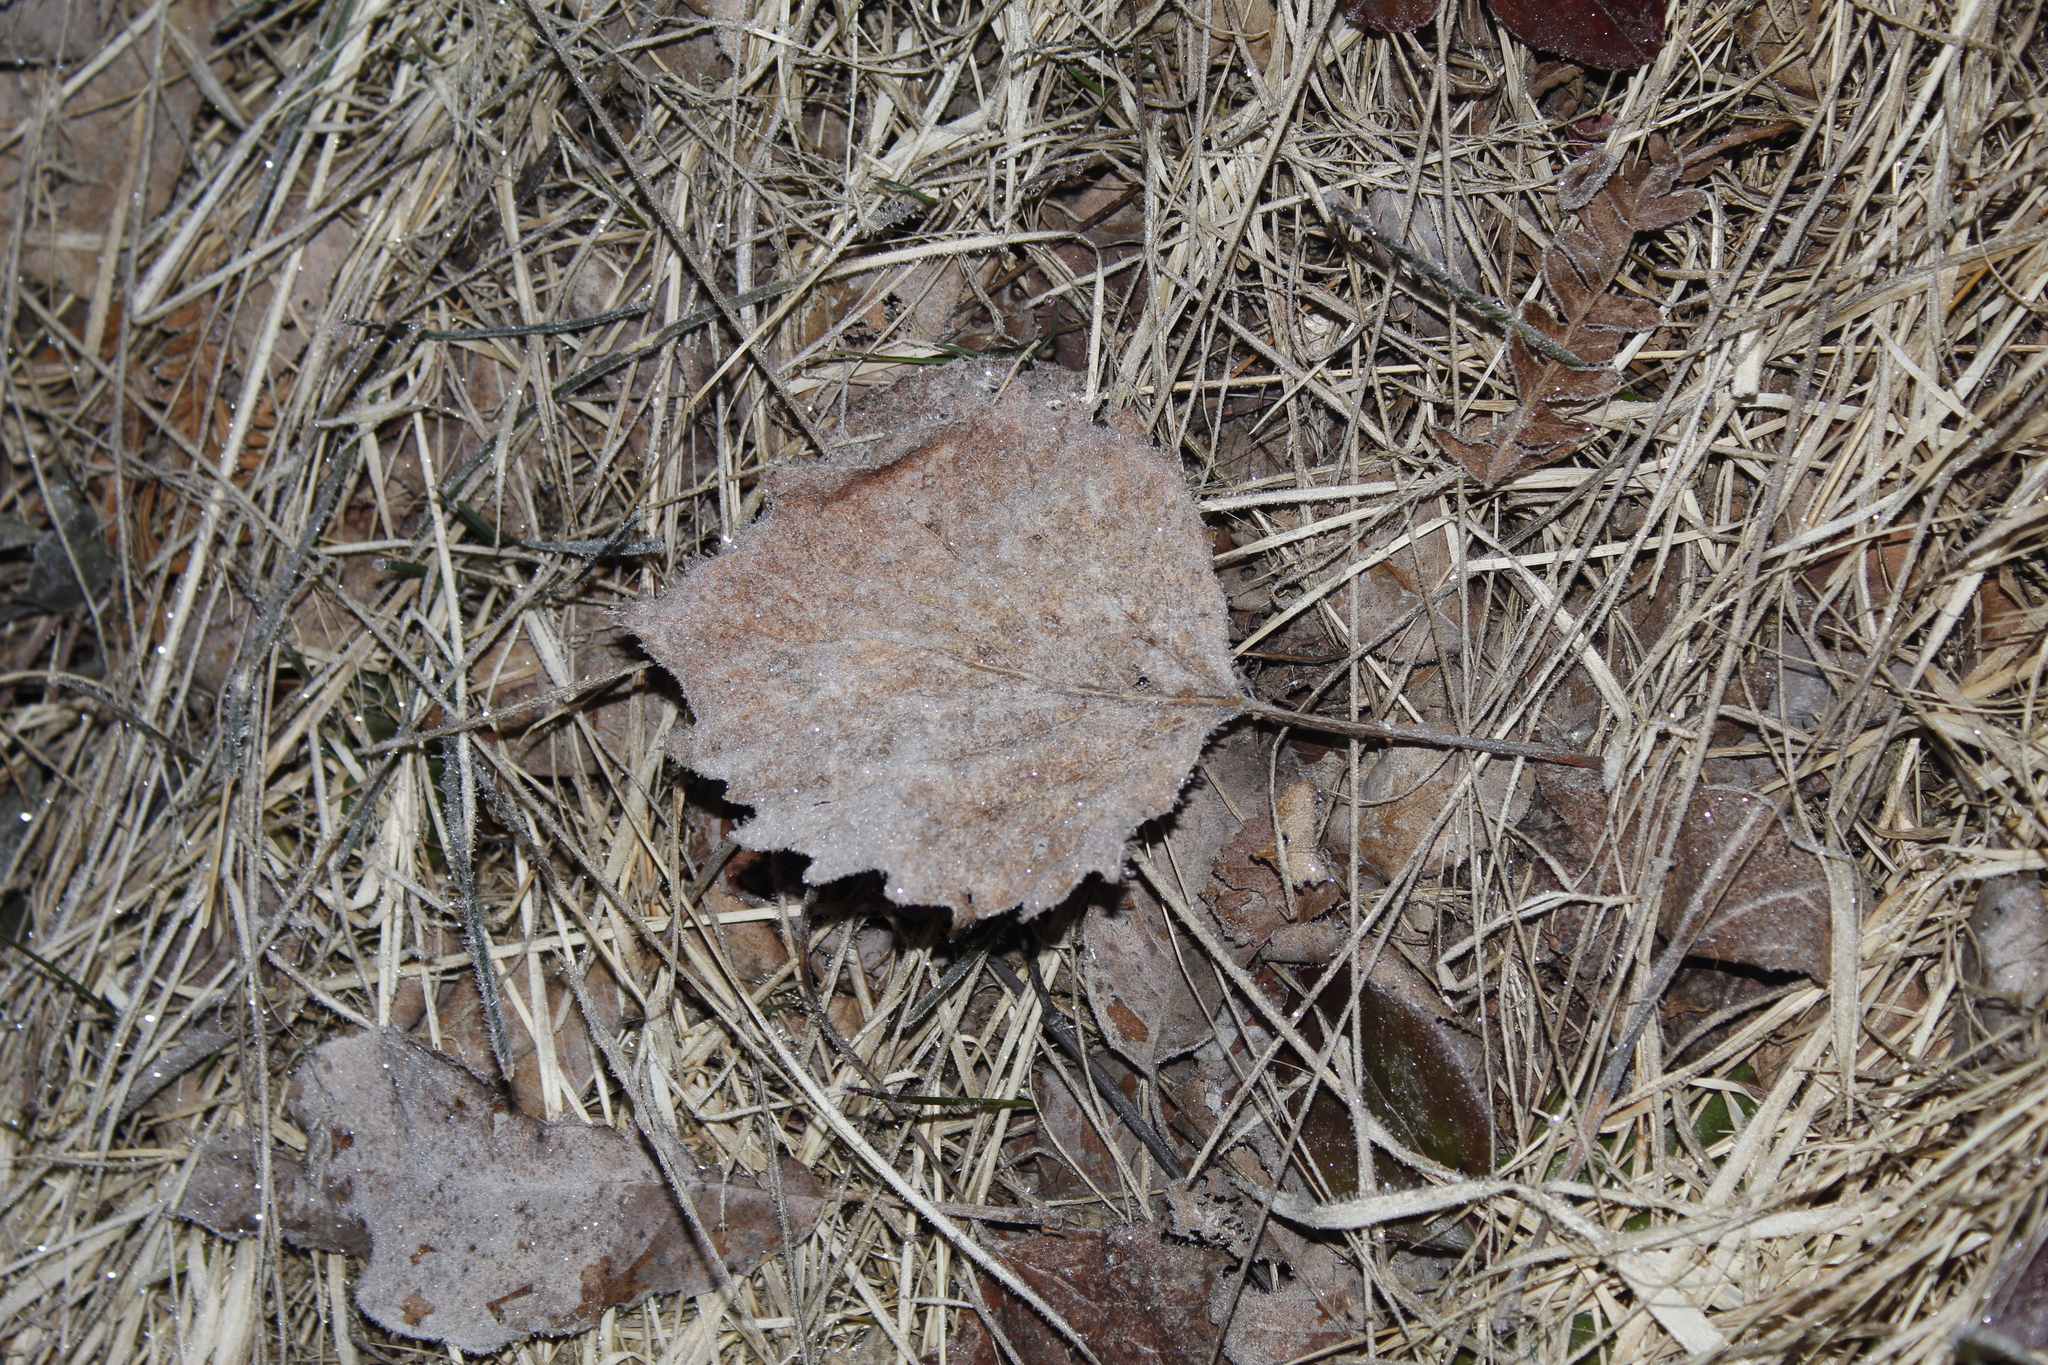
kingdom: Plantae
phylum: Tracheophyta
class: Magnoliopsida
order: Malpighiales
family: Salicaceae
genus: Populus
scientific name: Populus grandidentata
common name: Bigtooth aspen
